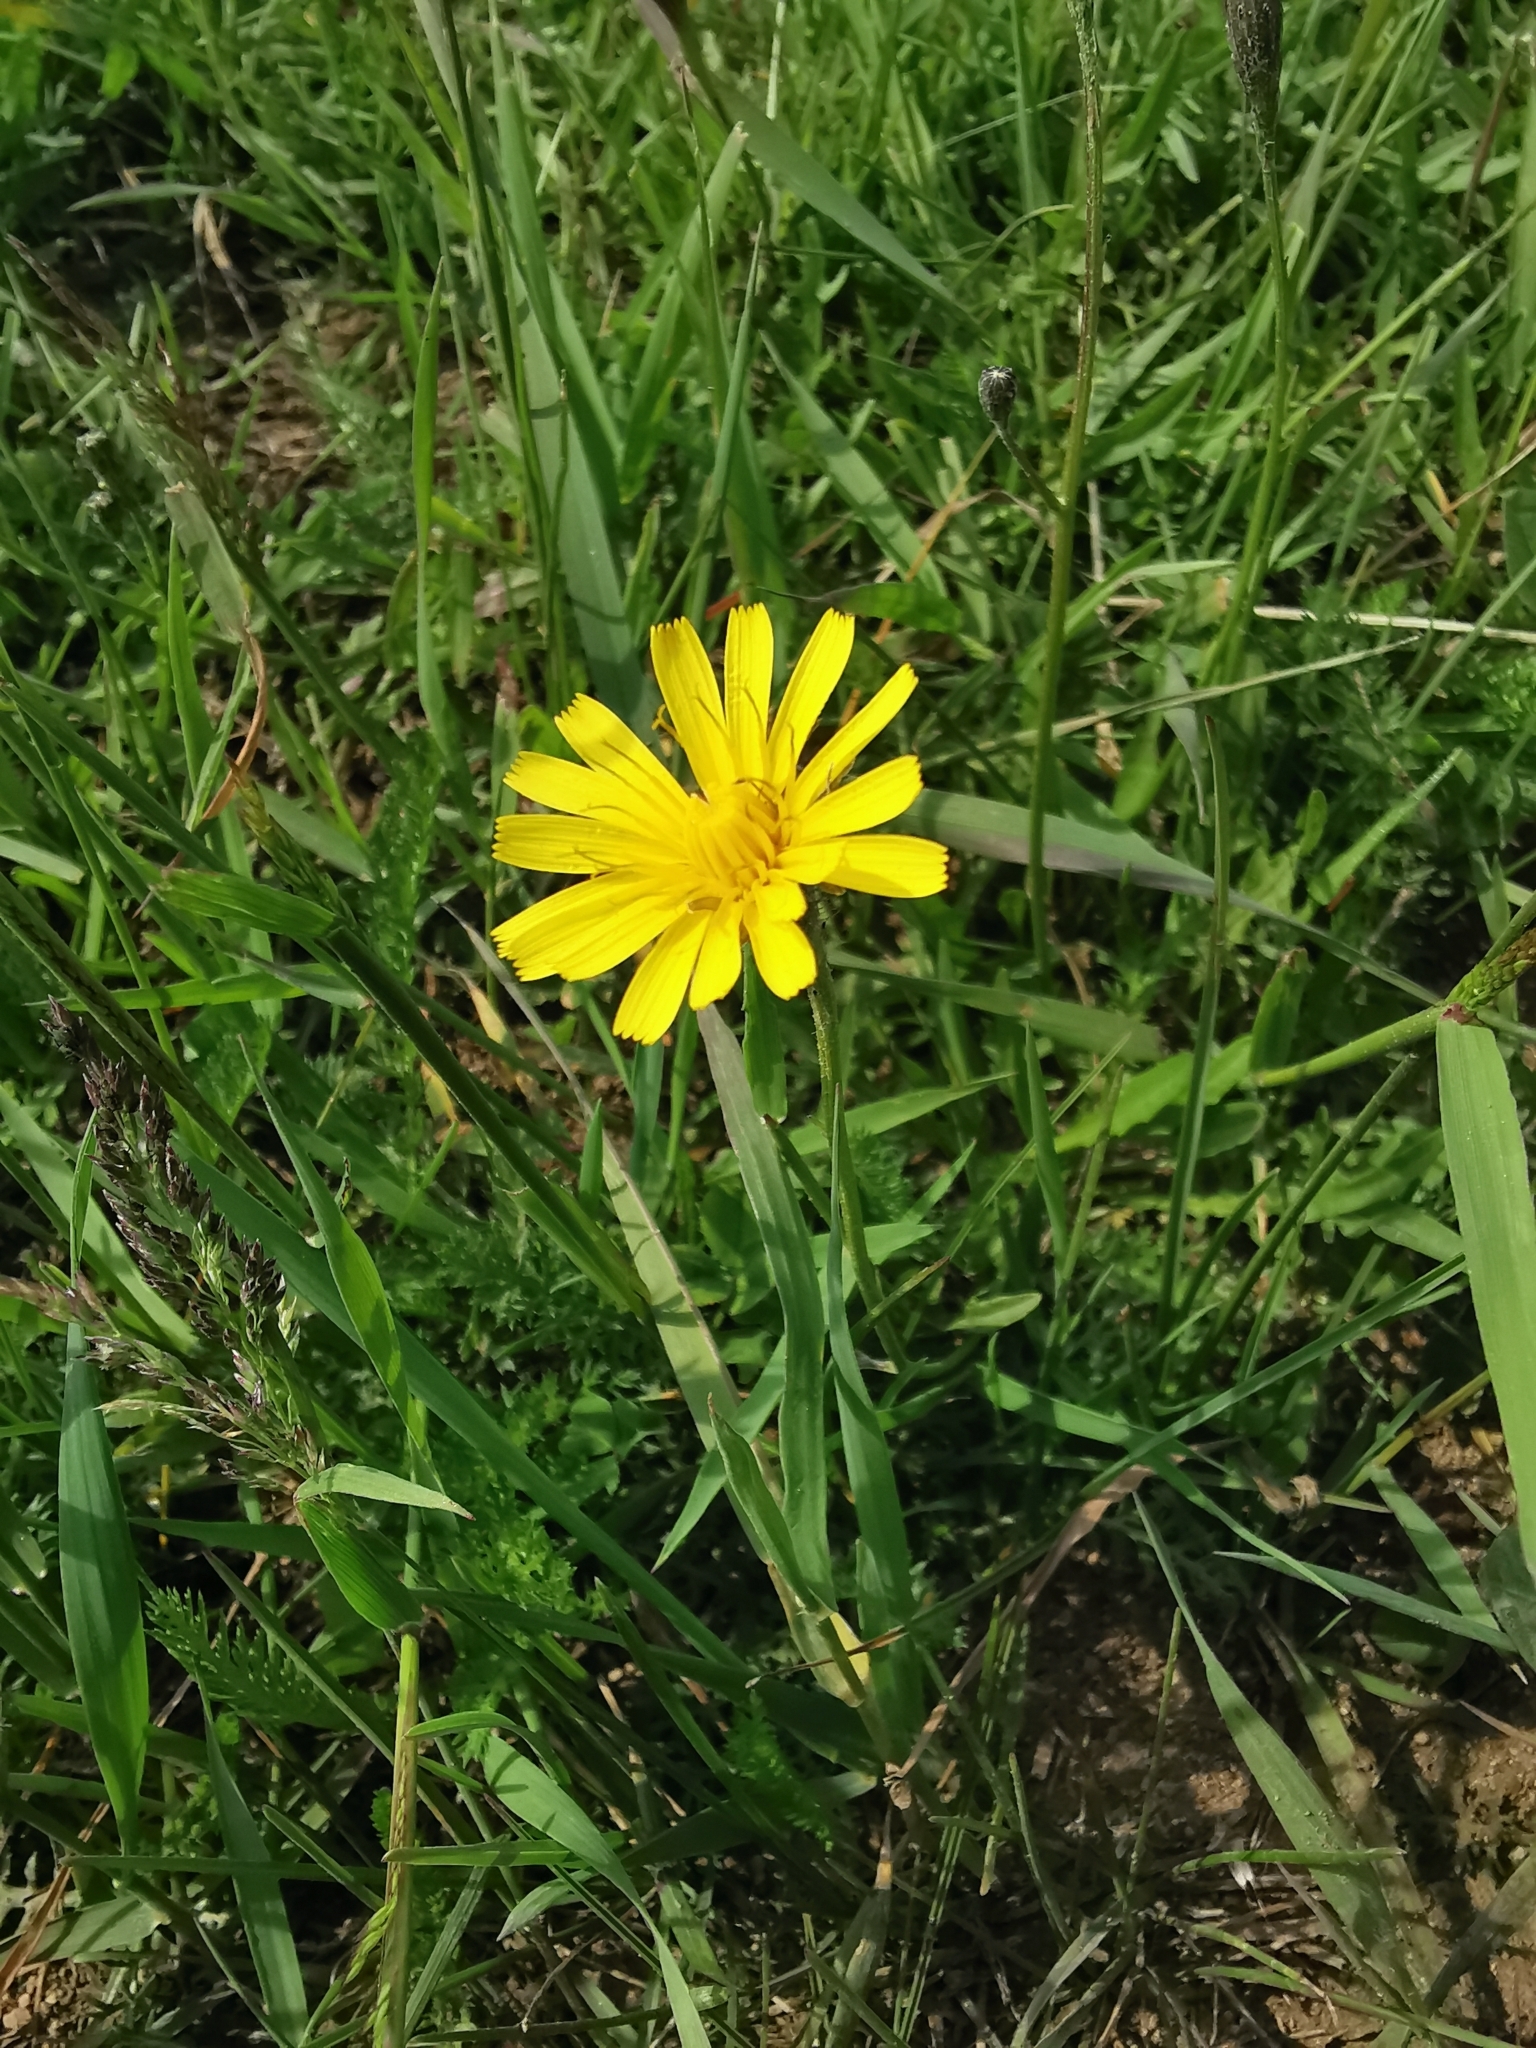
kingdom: Plantae
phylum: Tracheophyta
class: Magnoliopsida
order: Asterales
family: Asteraceae
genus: Scorzoneroides
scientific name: Scorzoneroides autumnalis
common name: Autumn hawkbit
